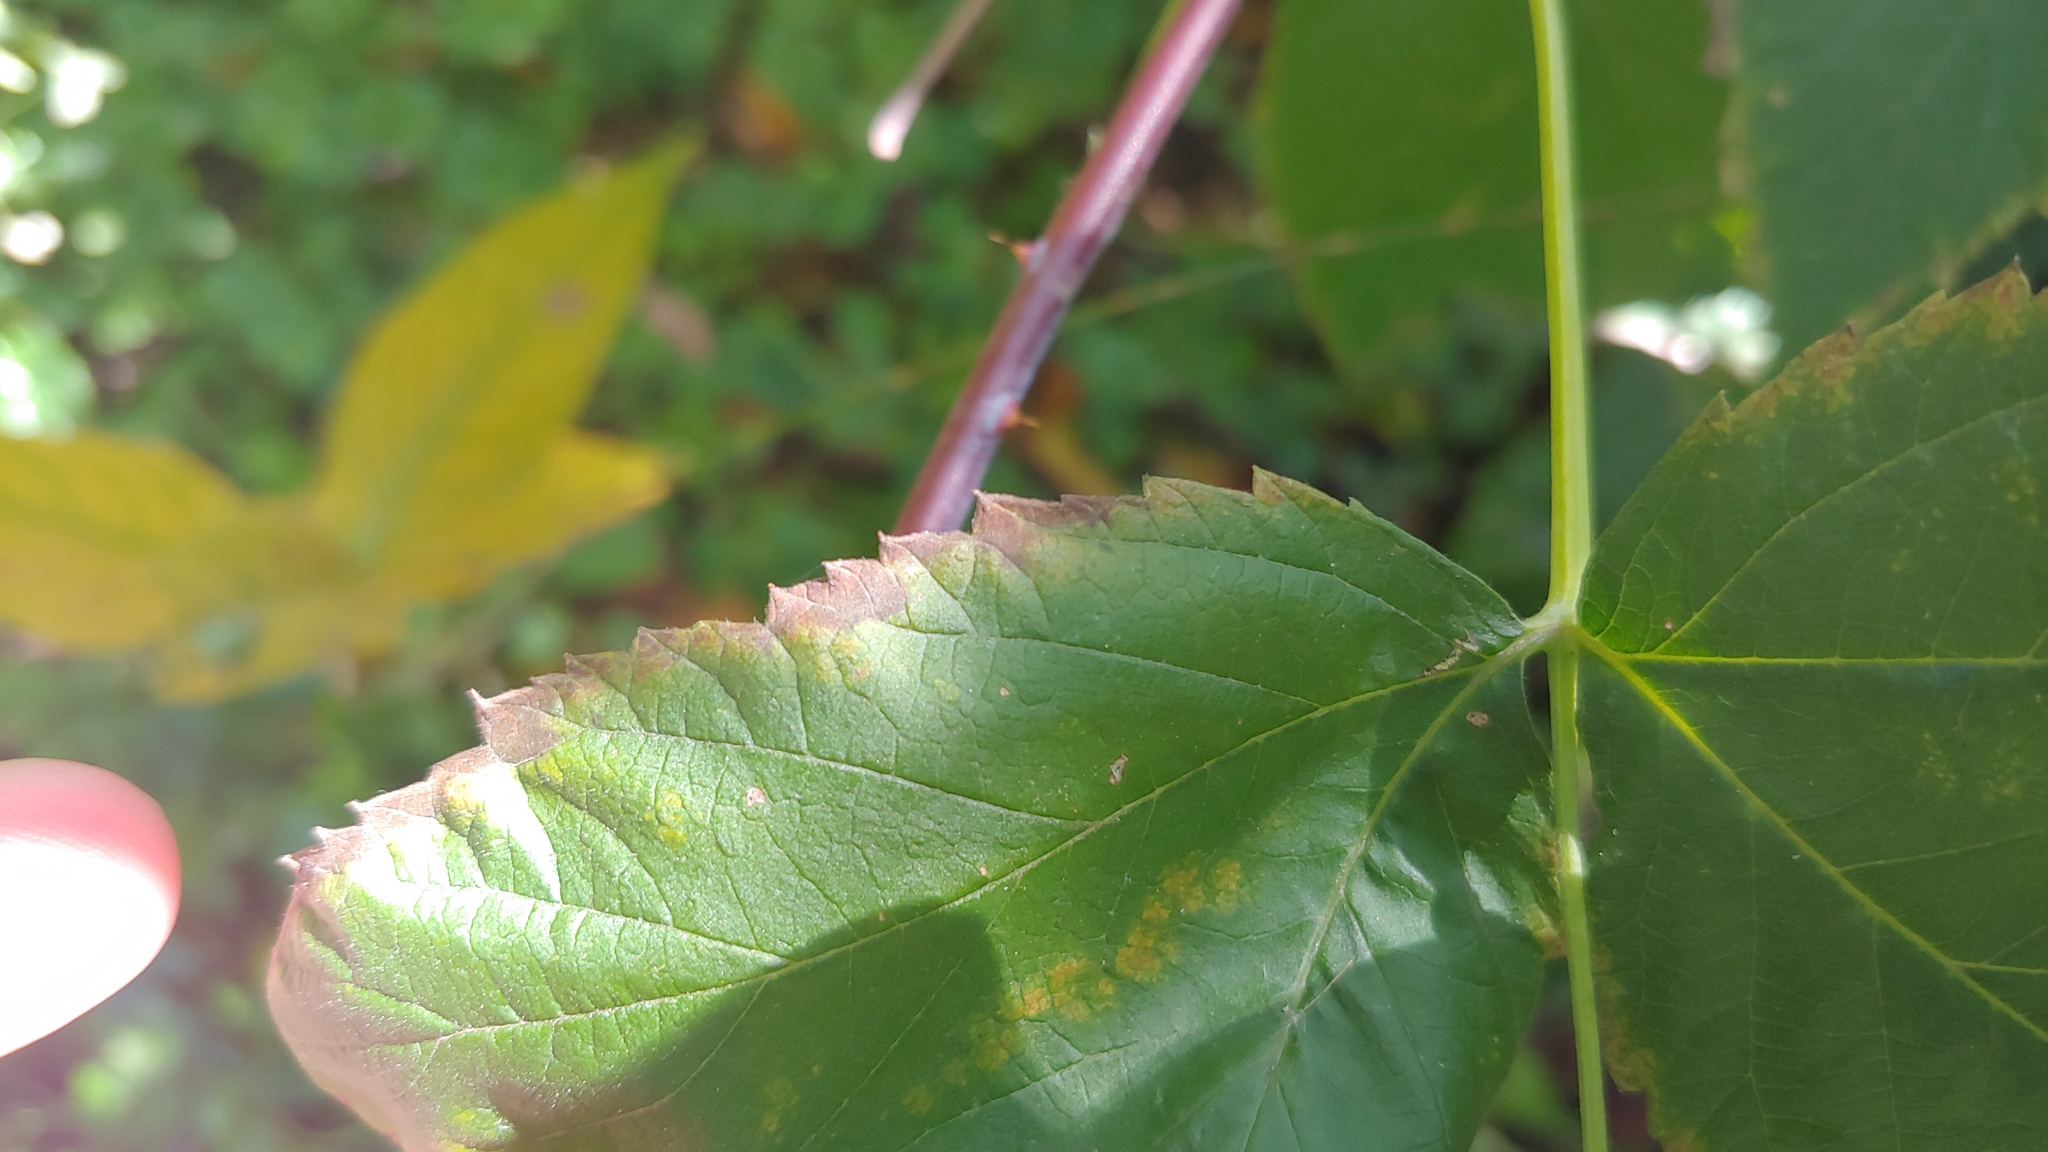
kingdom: Plantae
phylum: Tracheophyta
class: Magnoliopsida
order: Rosales
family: Rosaceae
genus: Rubus
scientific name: Rubus occidentalis
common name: Black raspberry
